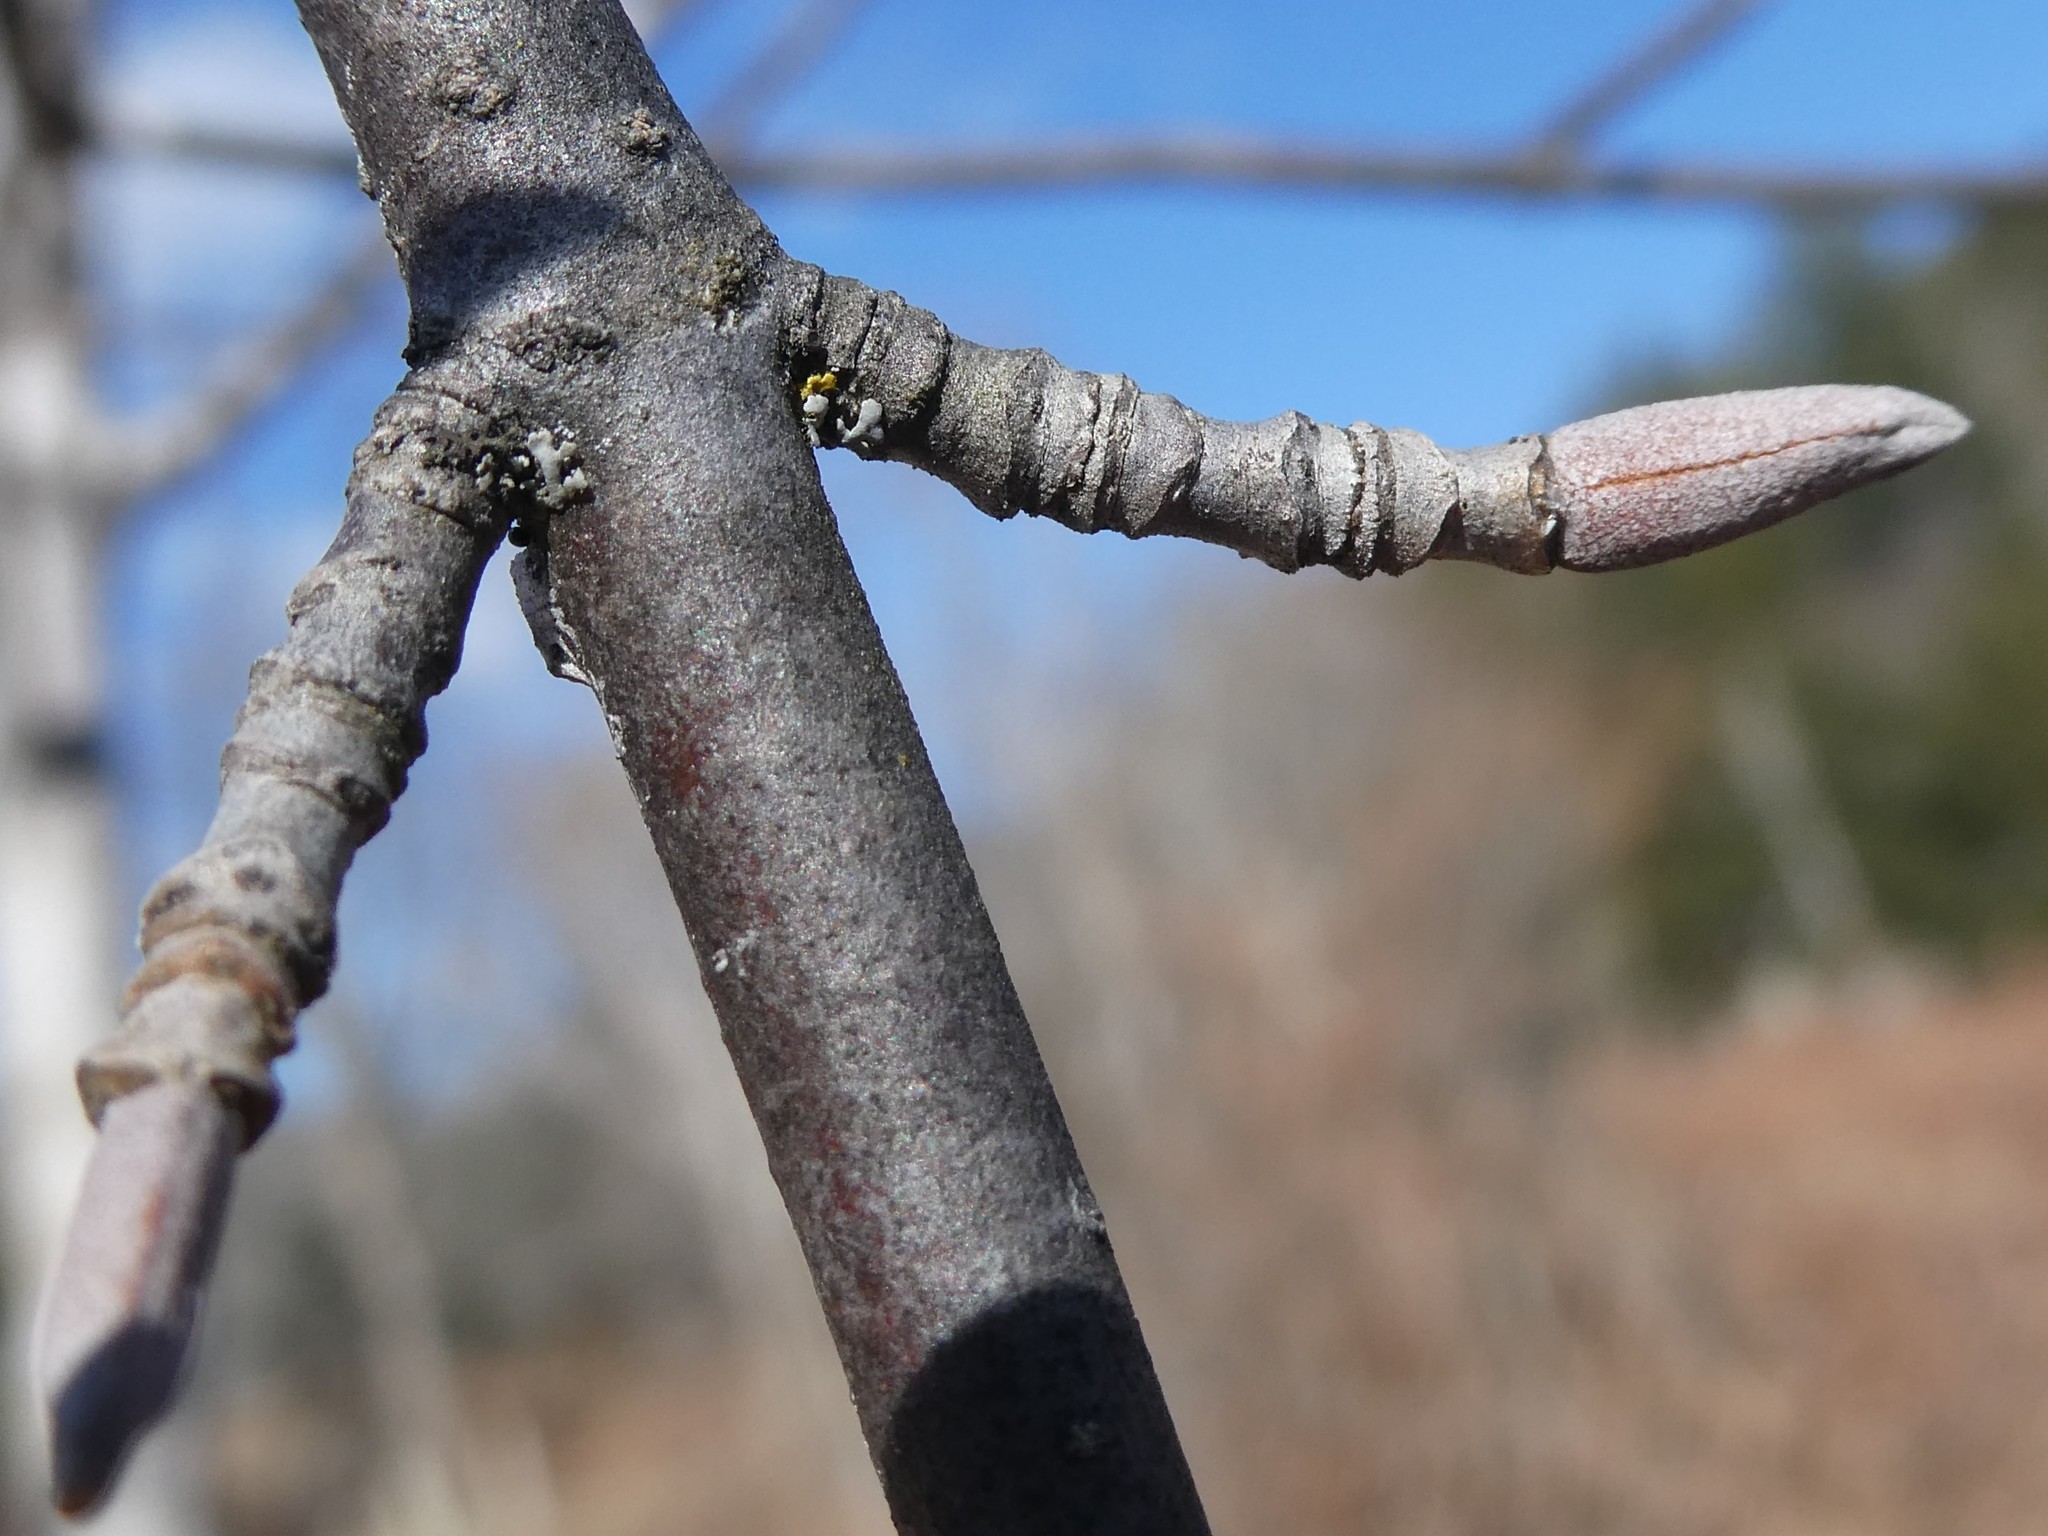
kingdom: Plantae
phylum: Tracheophyta
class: Magnoliopsida
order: Dipsacales
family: Viburnaceae
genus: Viburnum
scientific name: Viburnum lentago
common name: Black haw
